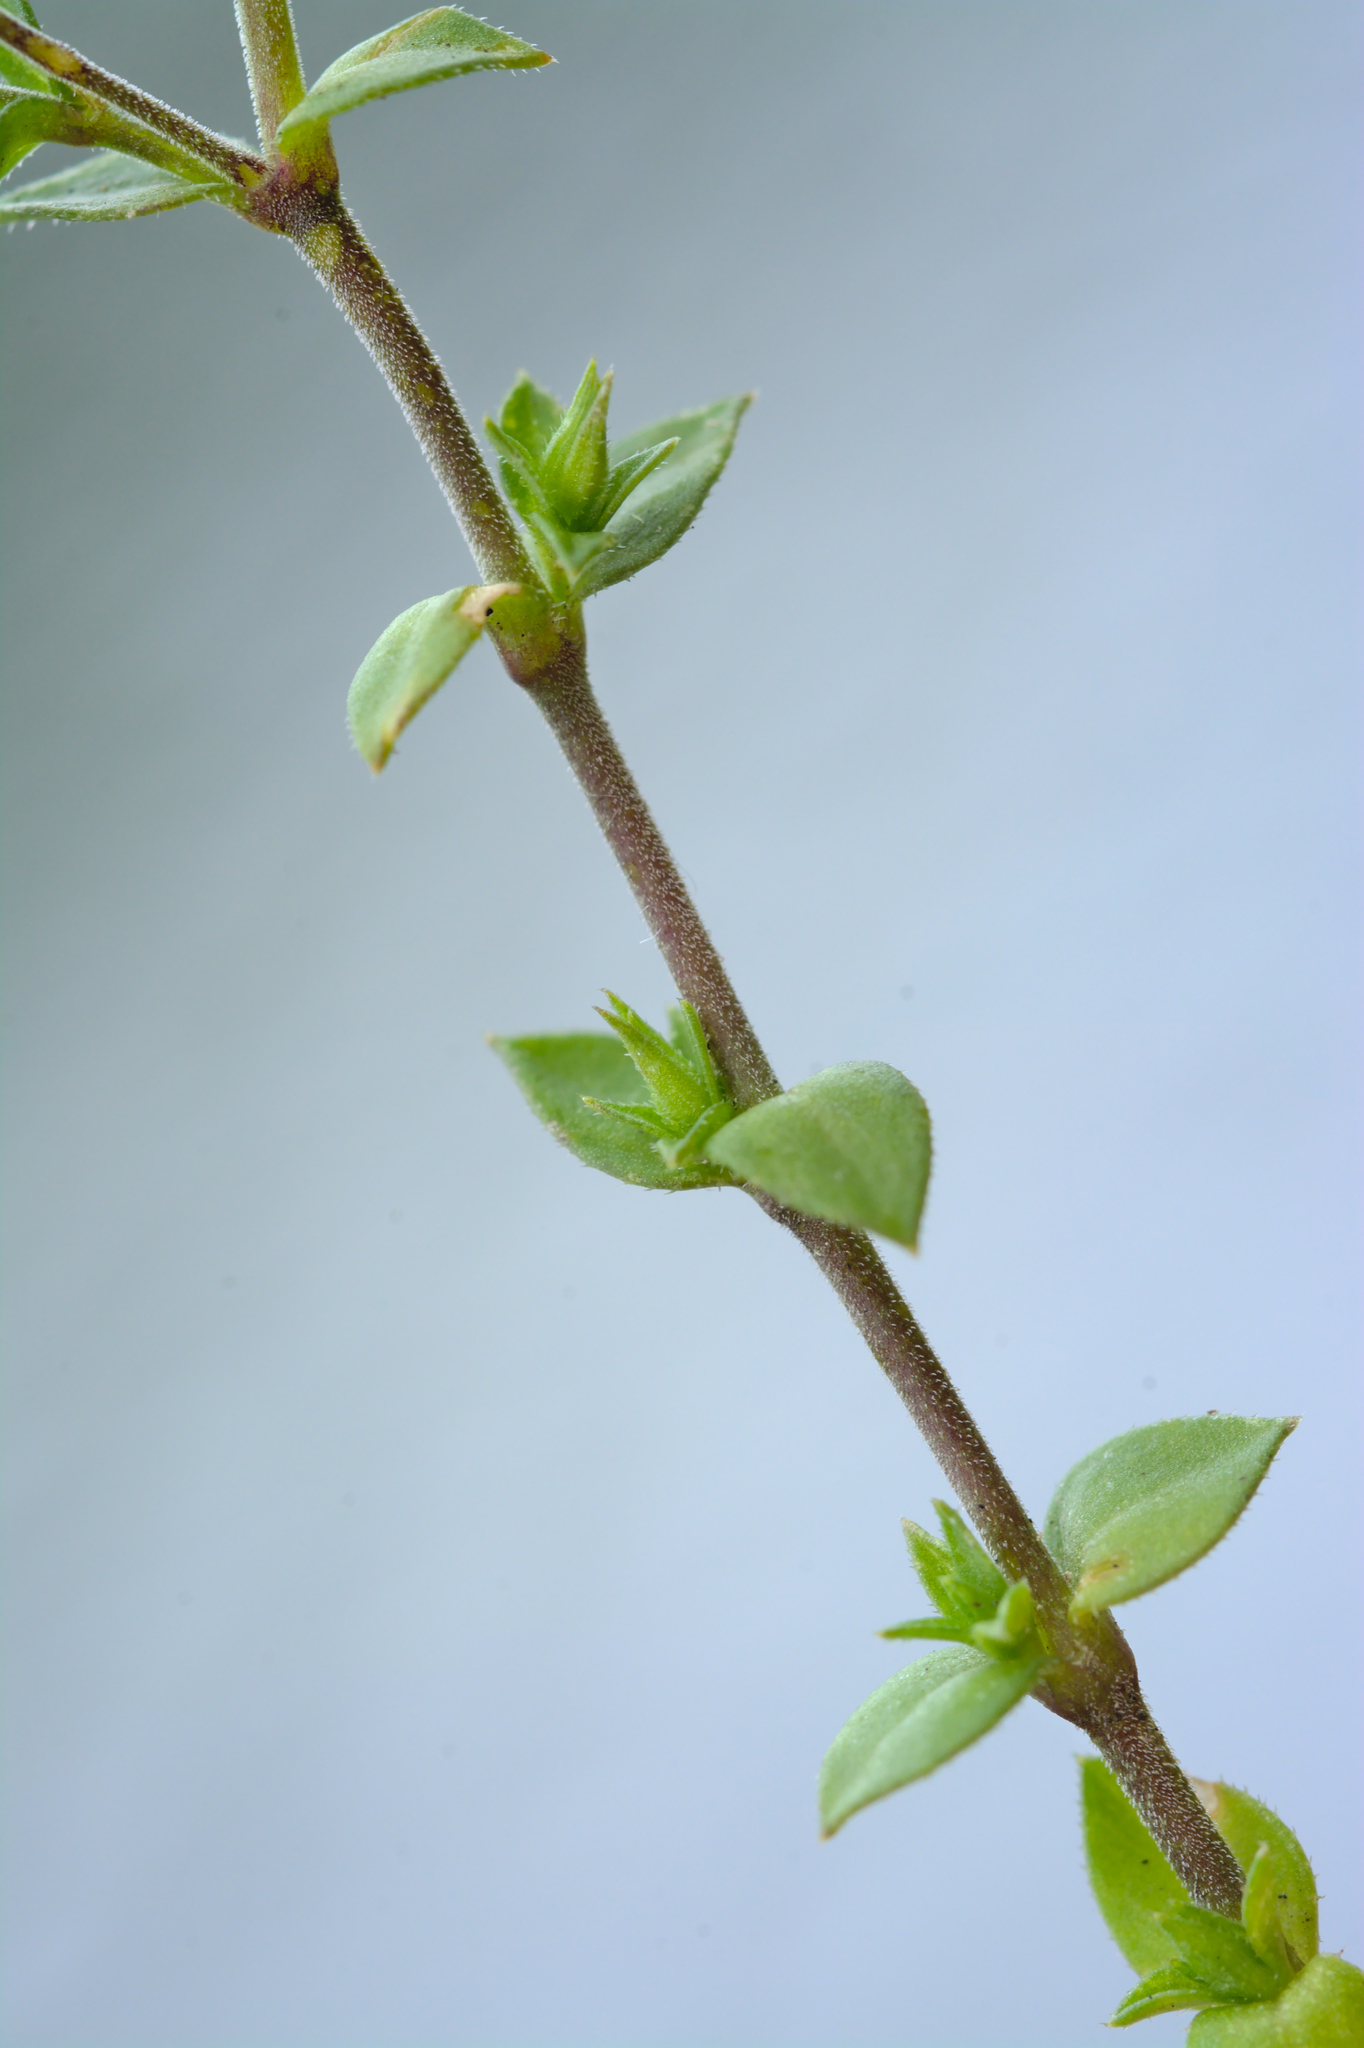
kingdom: Plantae
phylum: Tracheophyta
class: Magnoliopsida
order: Caryophyllales
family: Caryophyllaceae
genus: Arenaria
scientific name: Arenaria serpyllifolia
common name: Thyme-leaved sandwort
